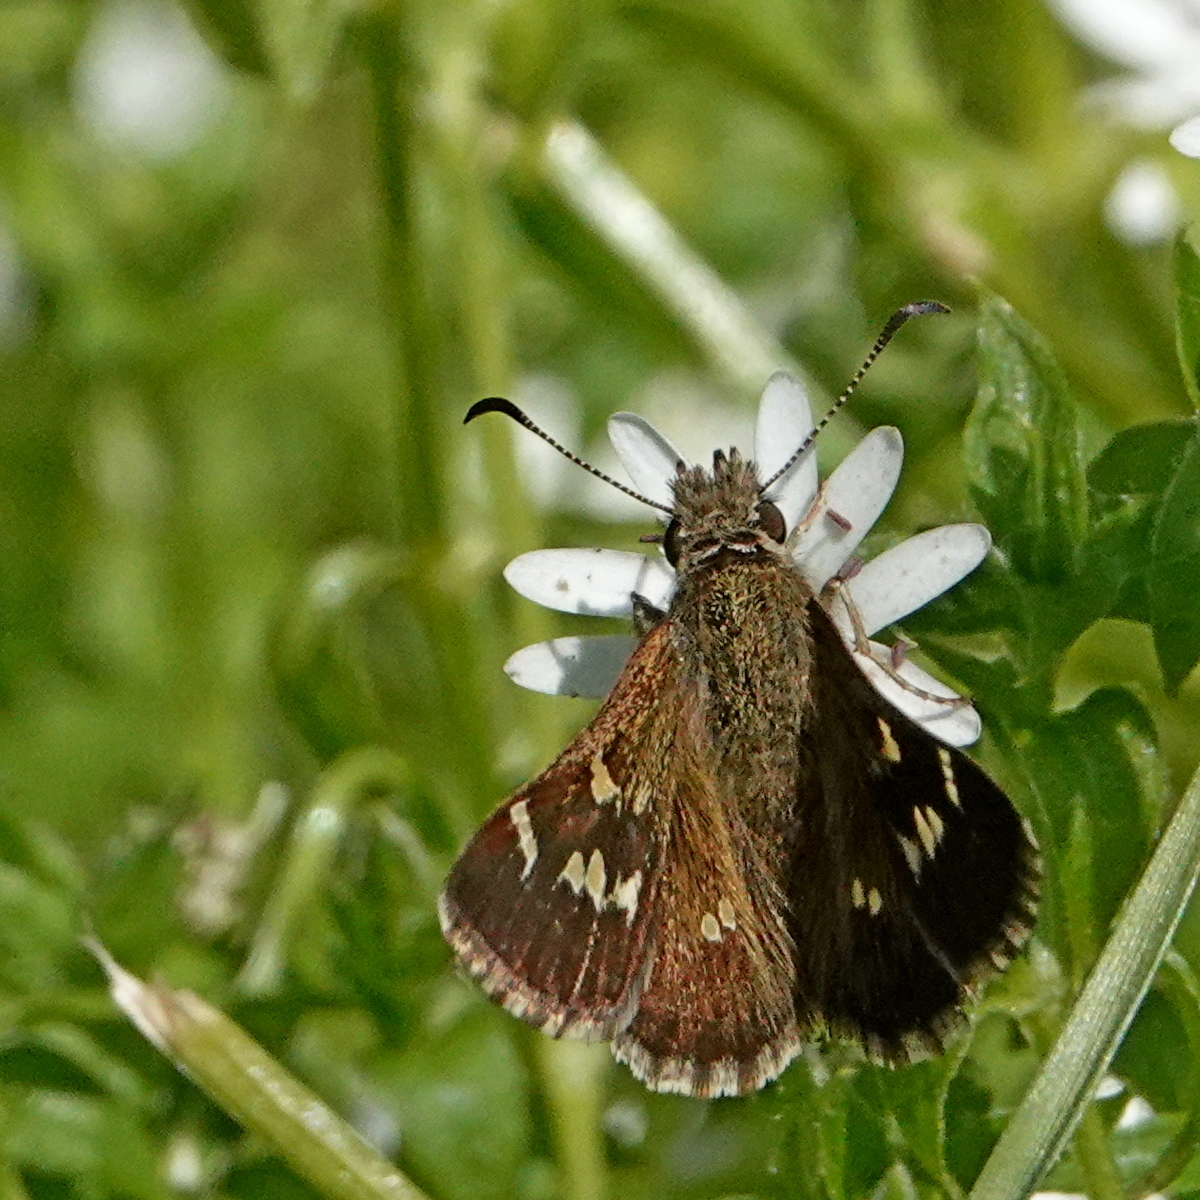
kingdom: Animalia
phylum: Arthropoda
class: Insecta
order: Lepidoptera
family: Hesperiidae
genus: Pasma
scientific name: Pasma tasmanicus
